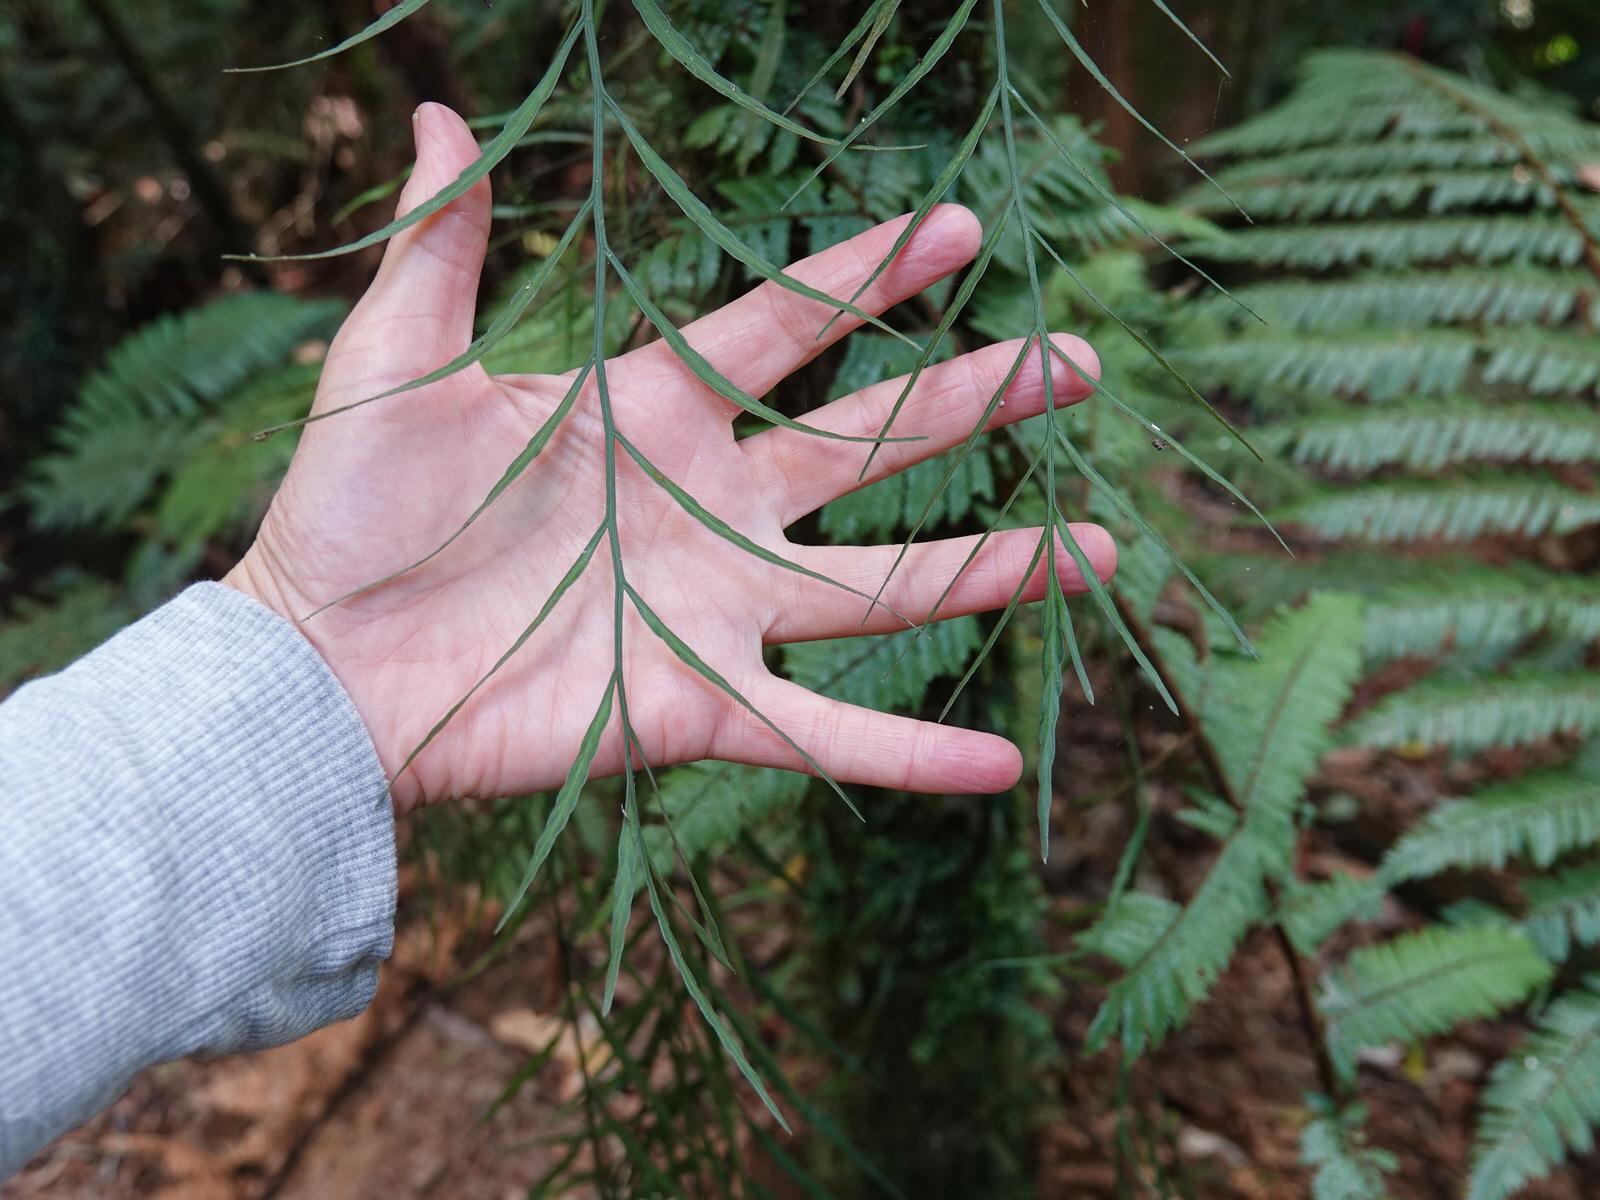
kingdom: Plantae
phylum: Tracheophyta
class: Polypodiopsida
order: Polypodiales
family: Aspleniaceae
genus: Asplenium
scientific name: Asplenium flaccidum
